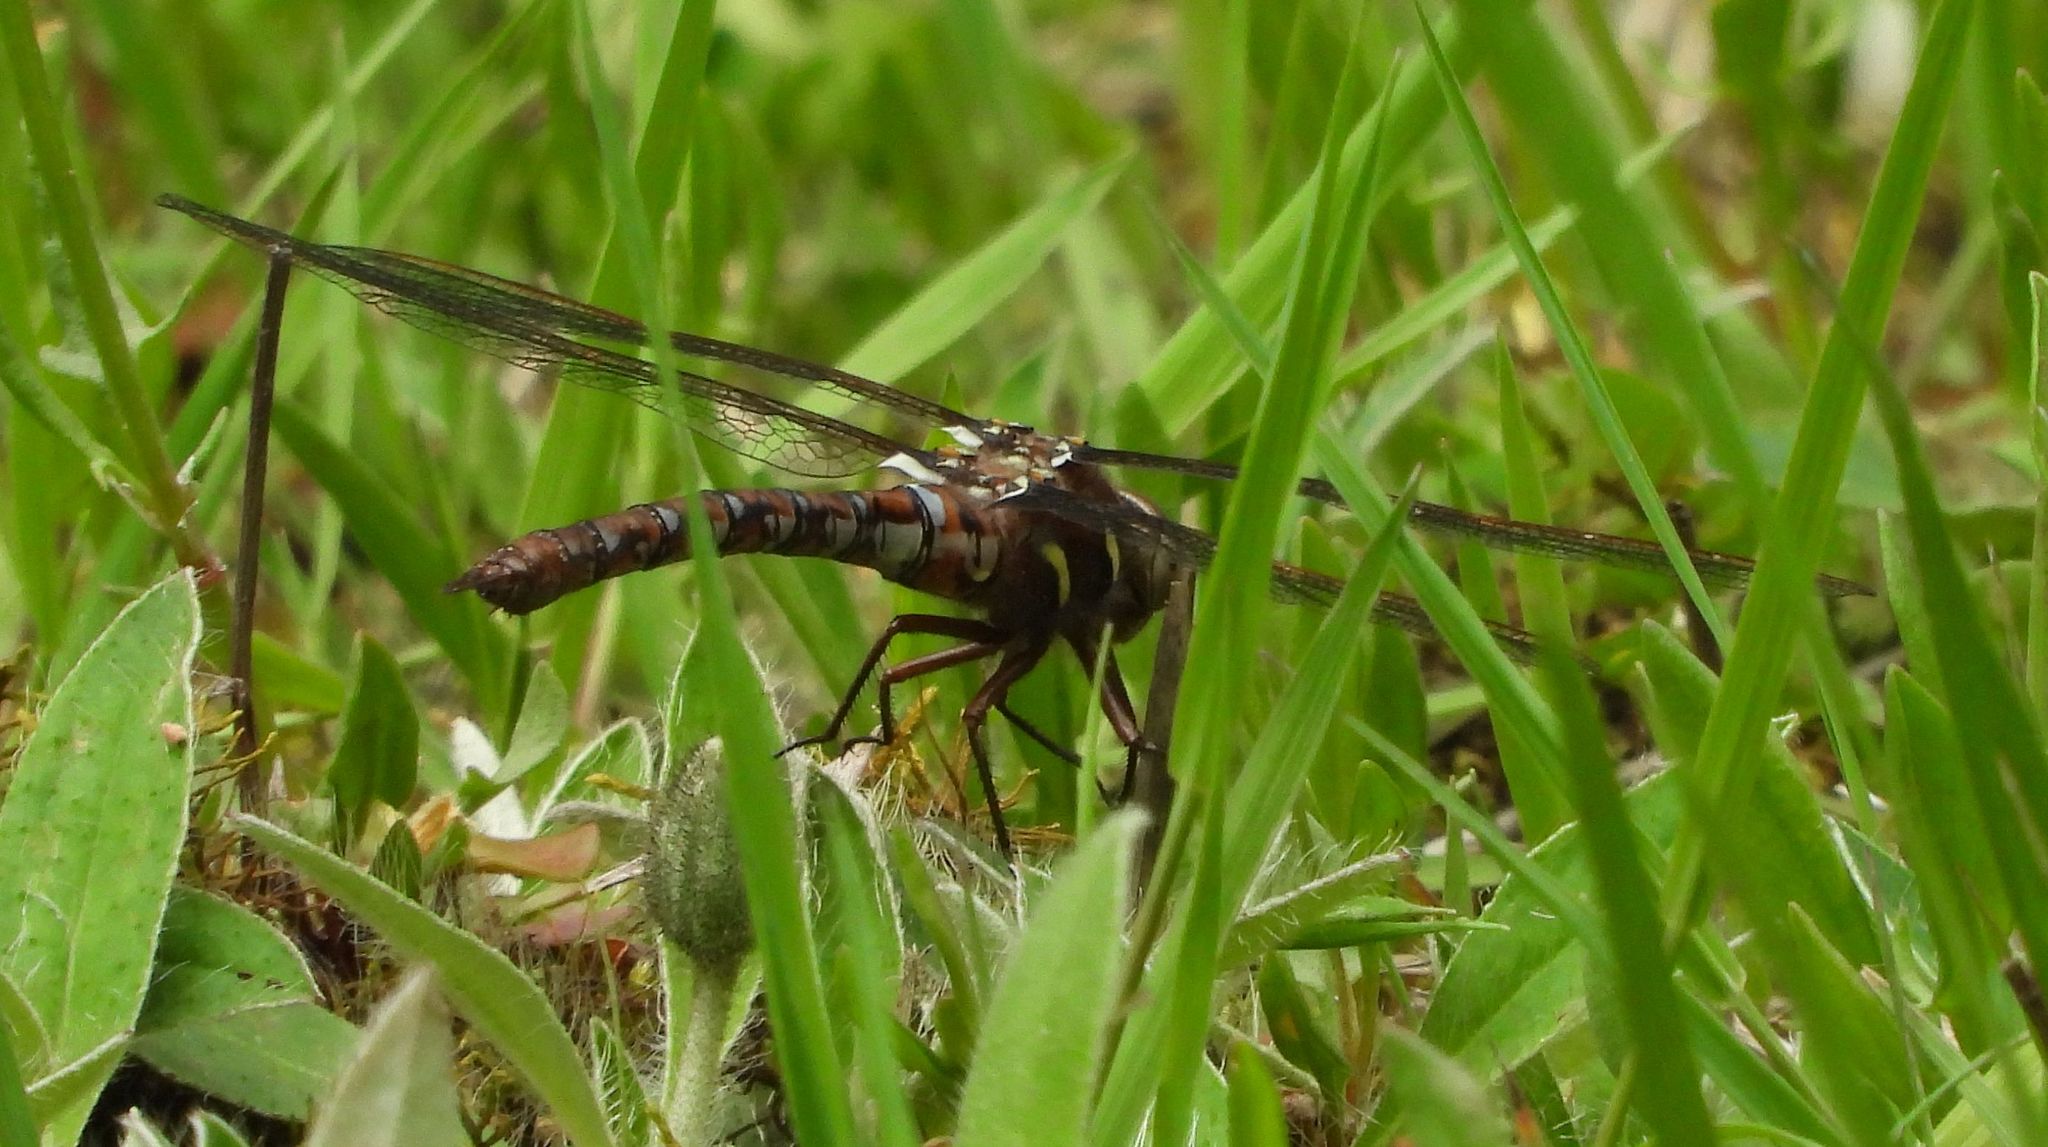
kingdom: Animalia
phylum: Arthropoda
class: Insecta
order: Odonata
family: Aeshnidae
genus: Basiaeschna
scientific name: Basiaeschna janata
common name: Springtime darner
